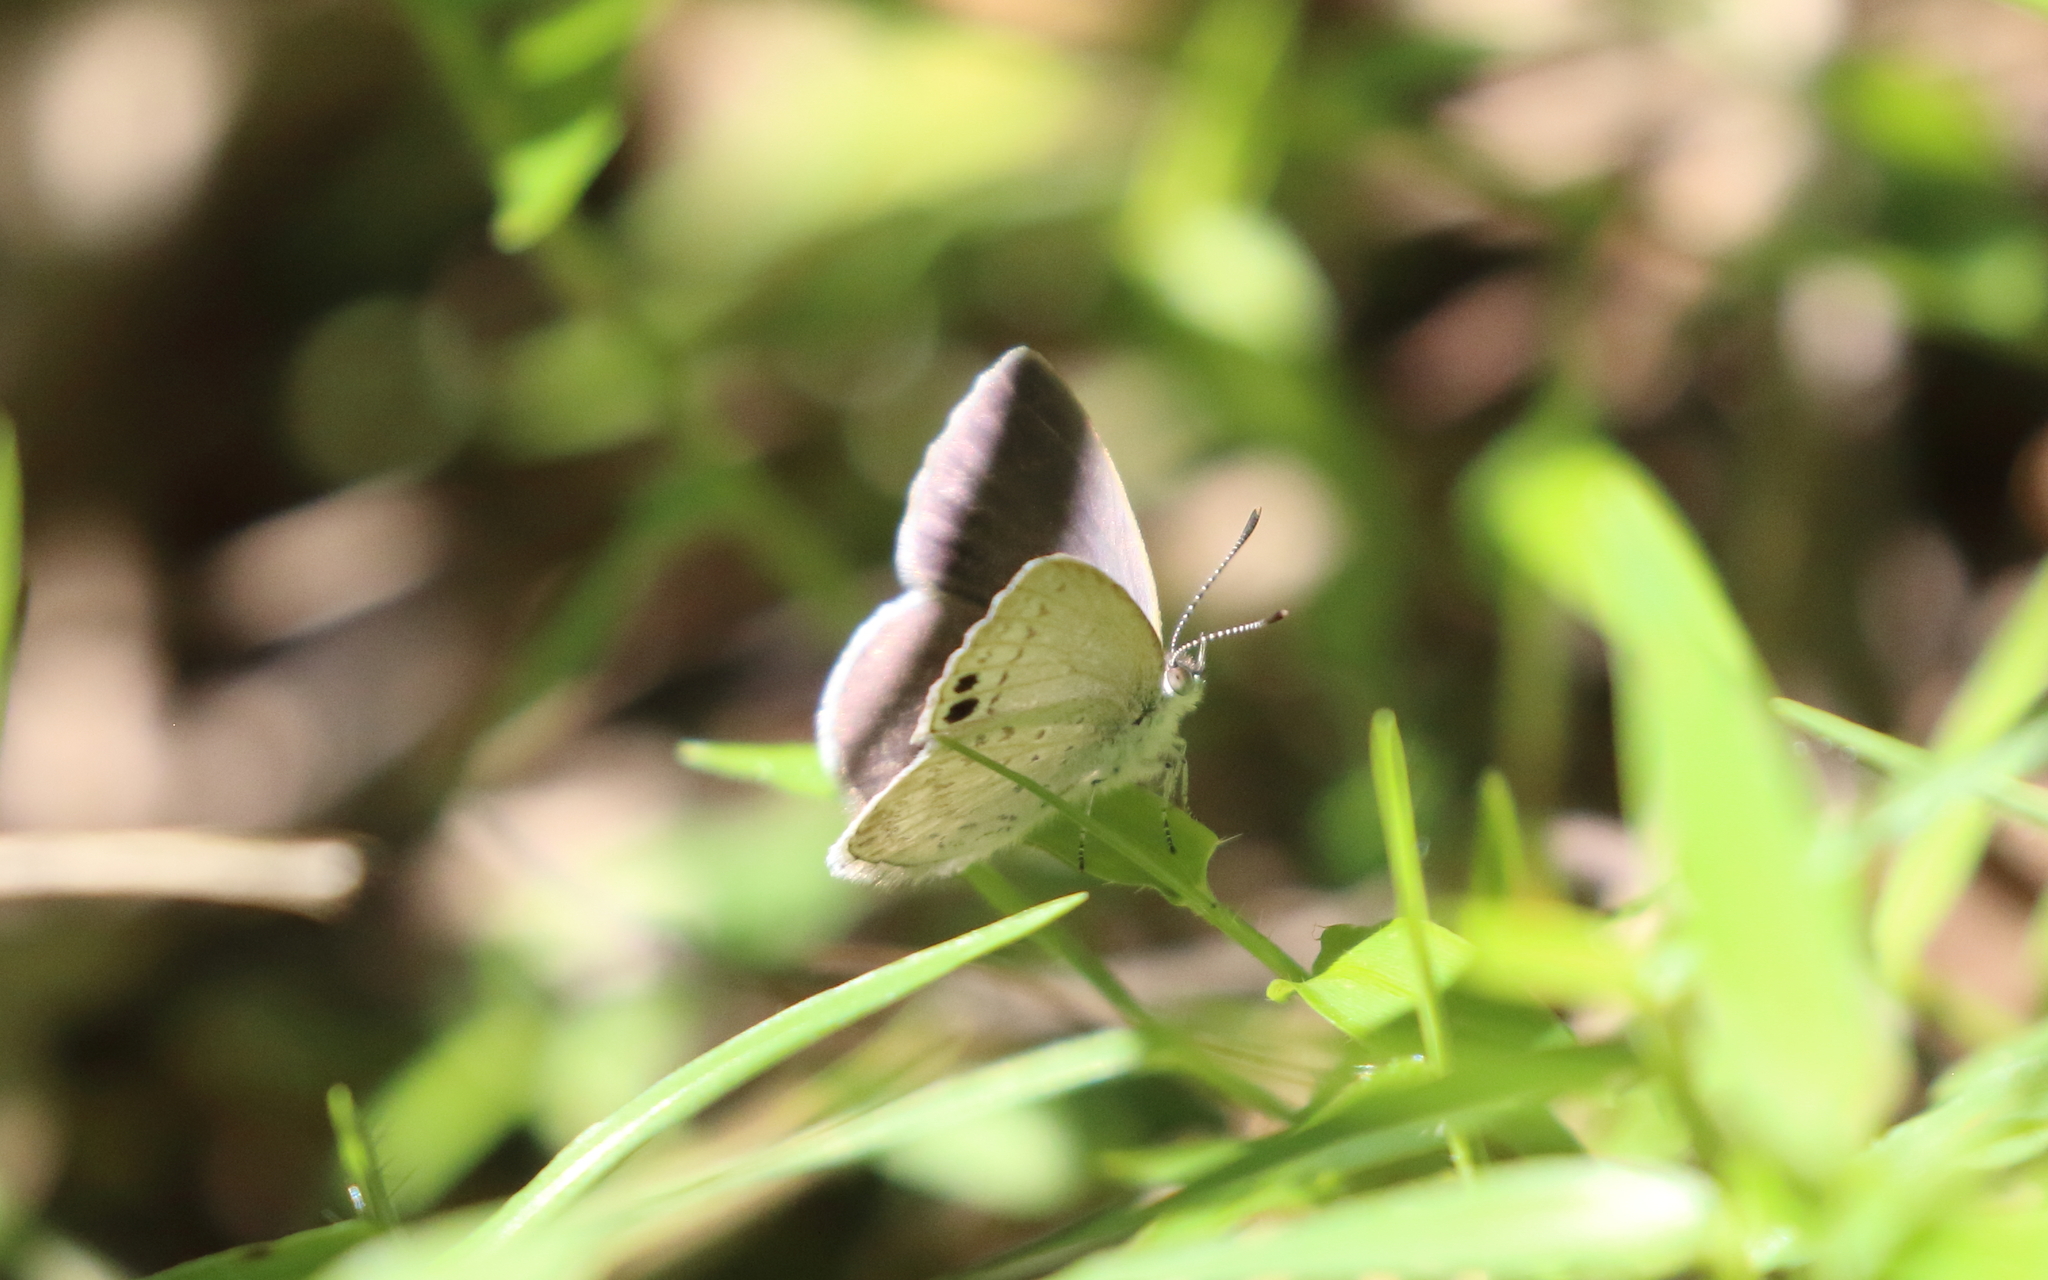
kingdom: Animalia
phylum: Arthropoda
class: Insecta
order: Lepidoptera
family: Lycaenidae
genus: Candalides
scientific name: Candalides
